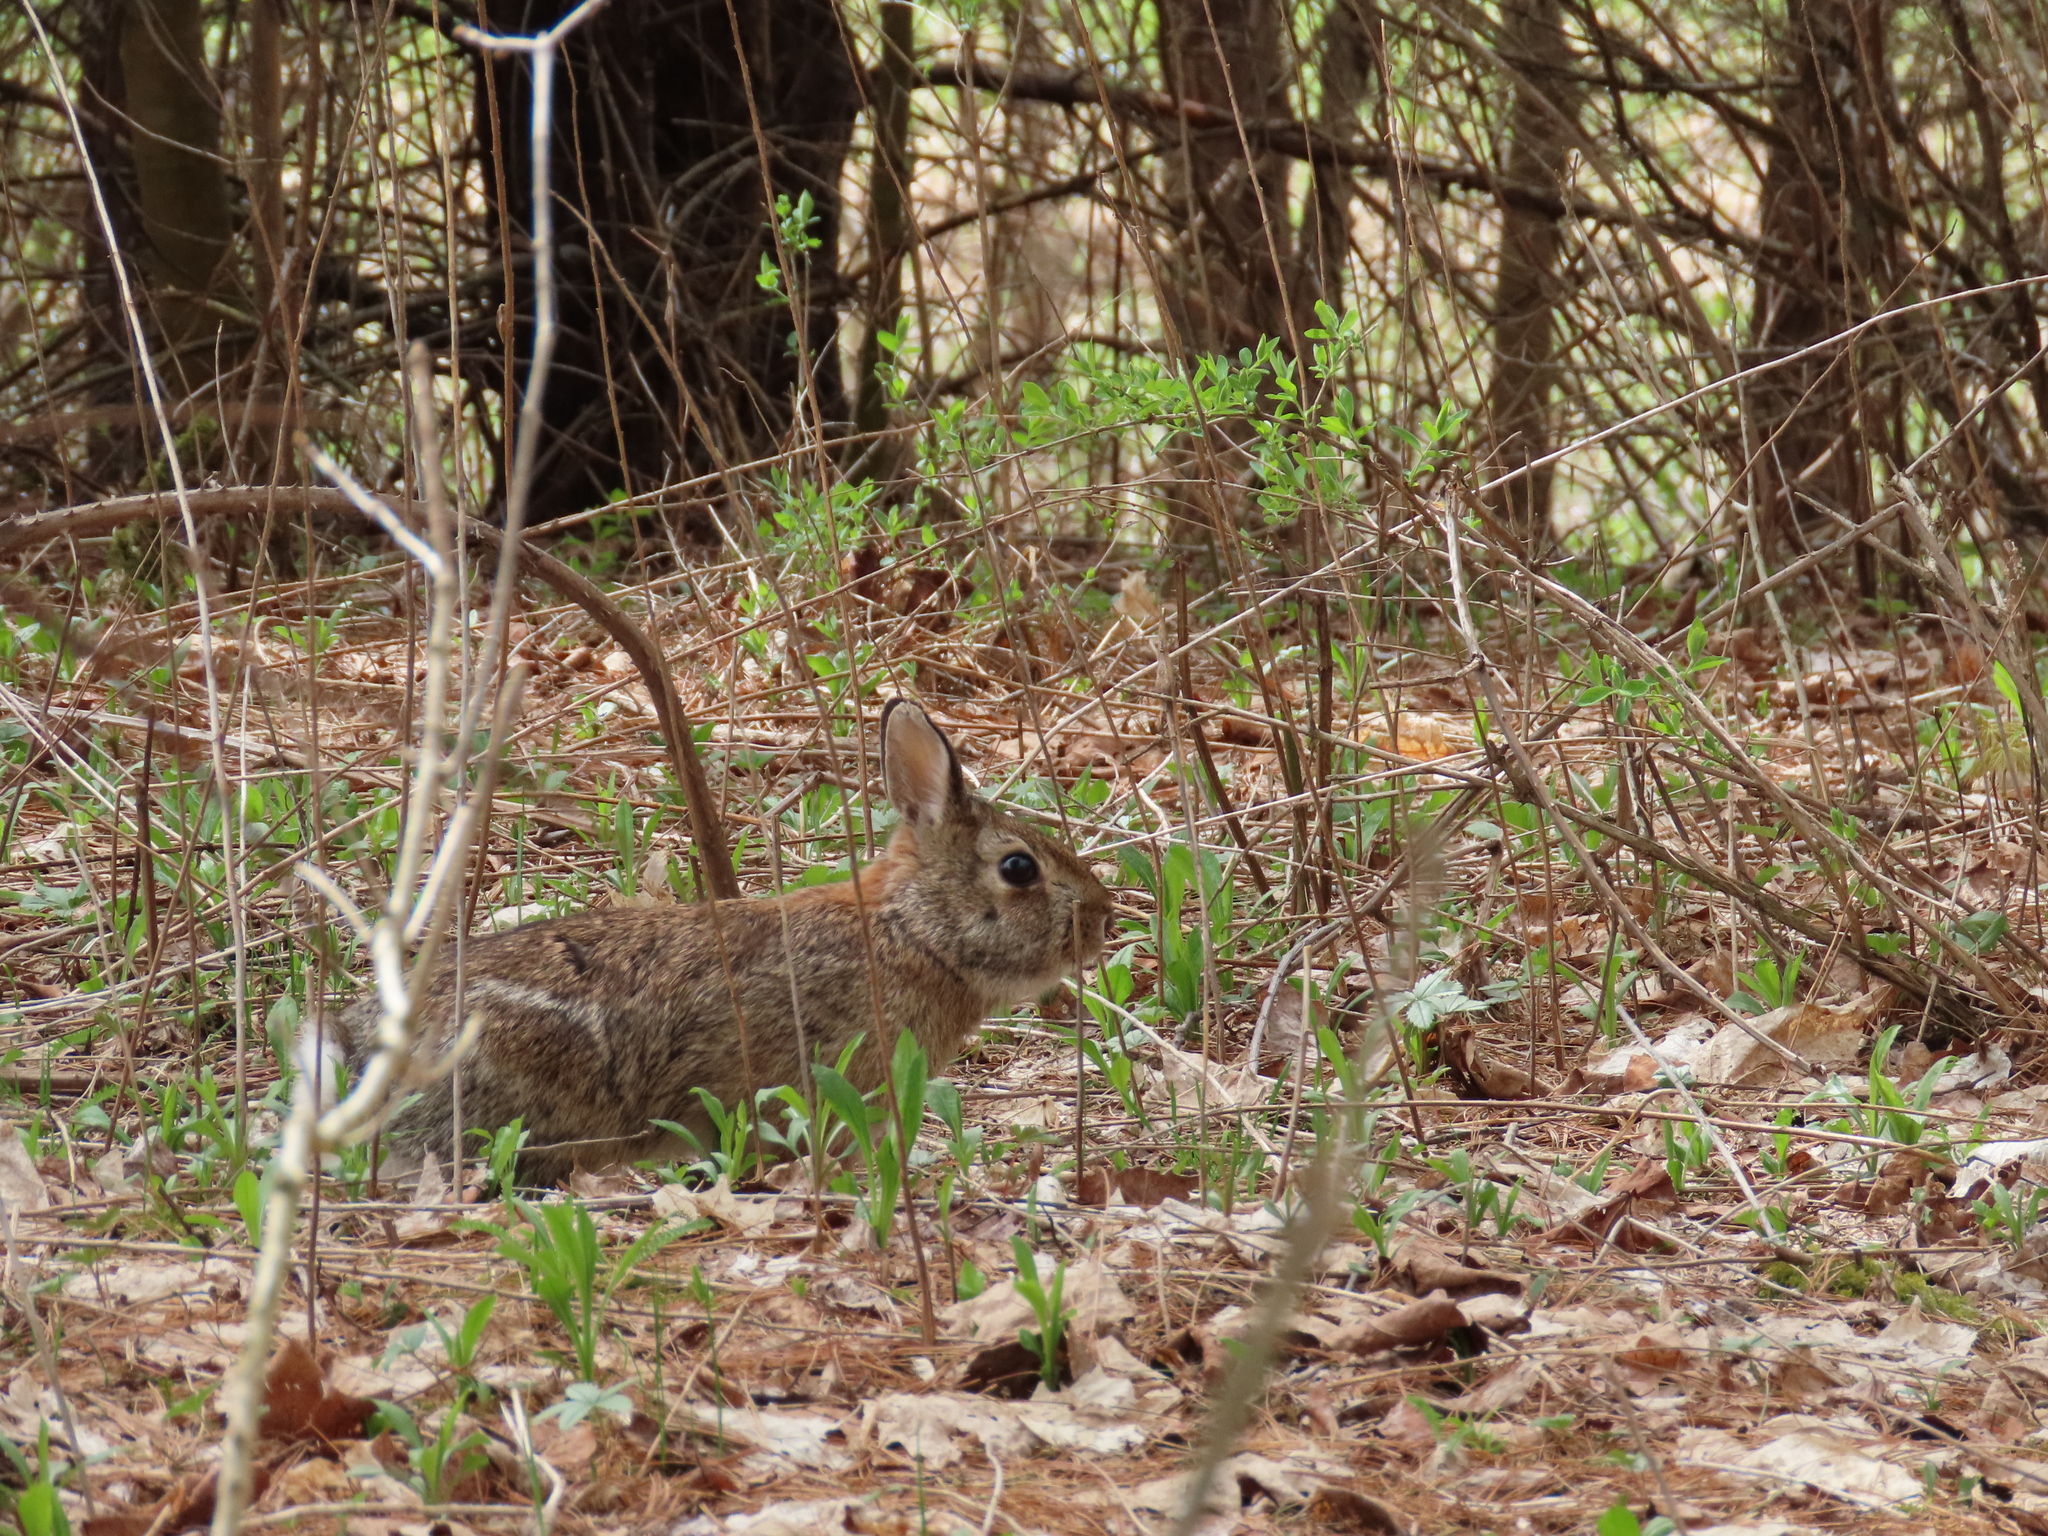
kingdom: Animalia
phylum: Chordata
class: Mammalia
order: Lagomorpha
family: Leporidae
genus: Sylvilagus
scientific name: Sylvilagus floridanus
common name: Eastern cottontail
